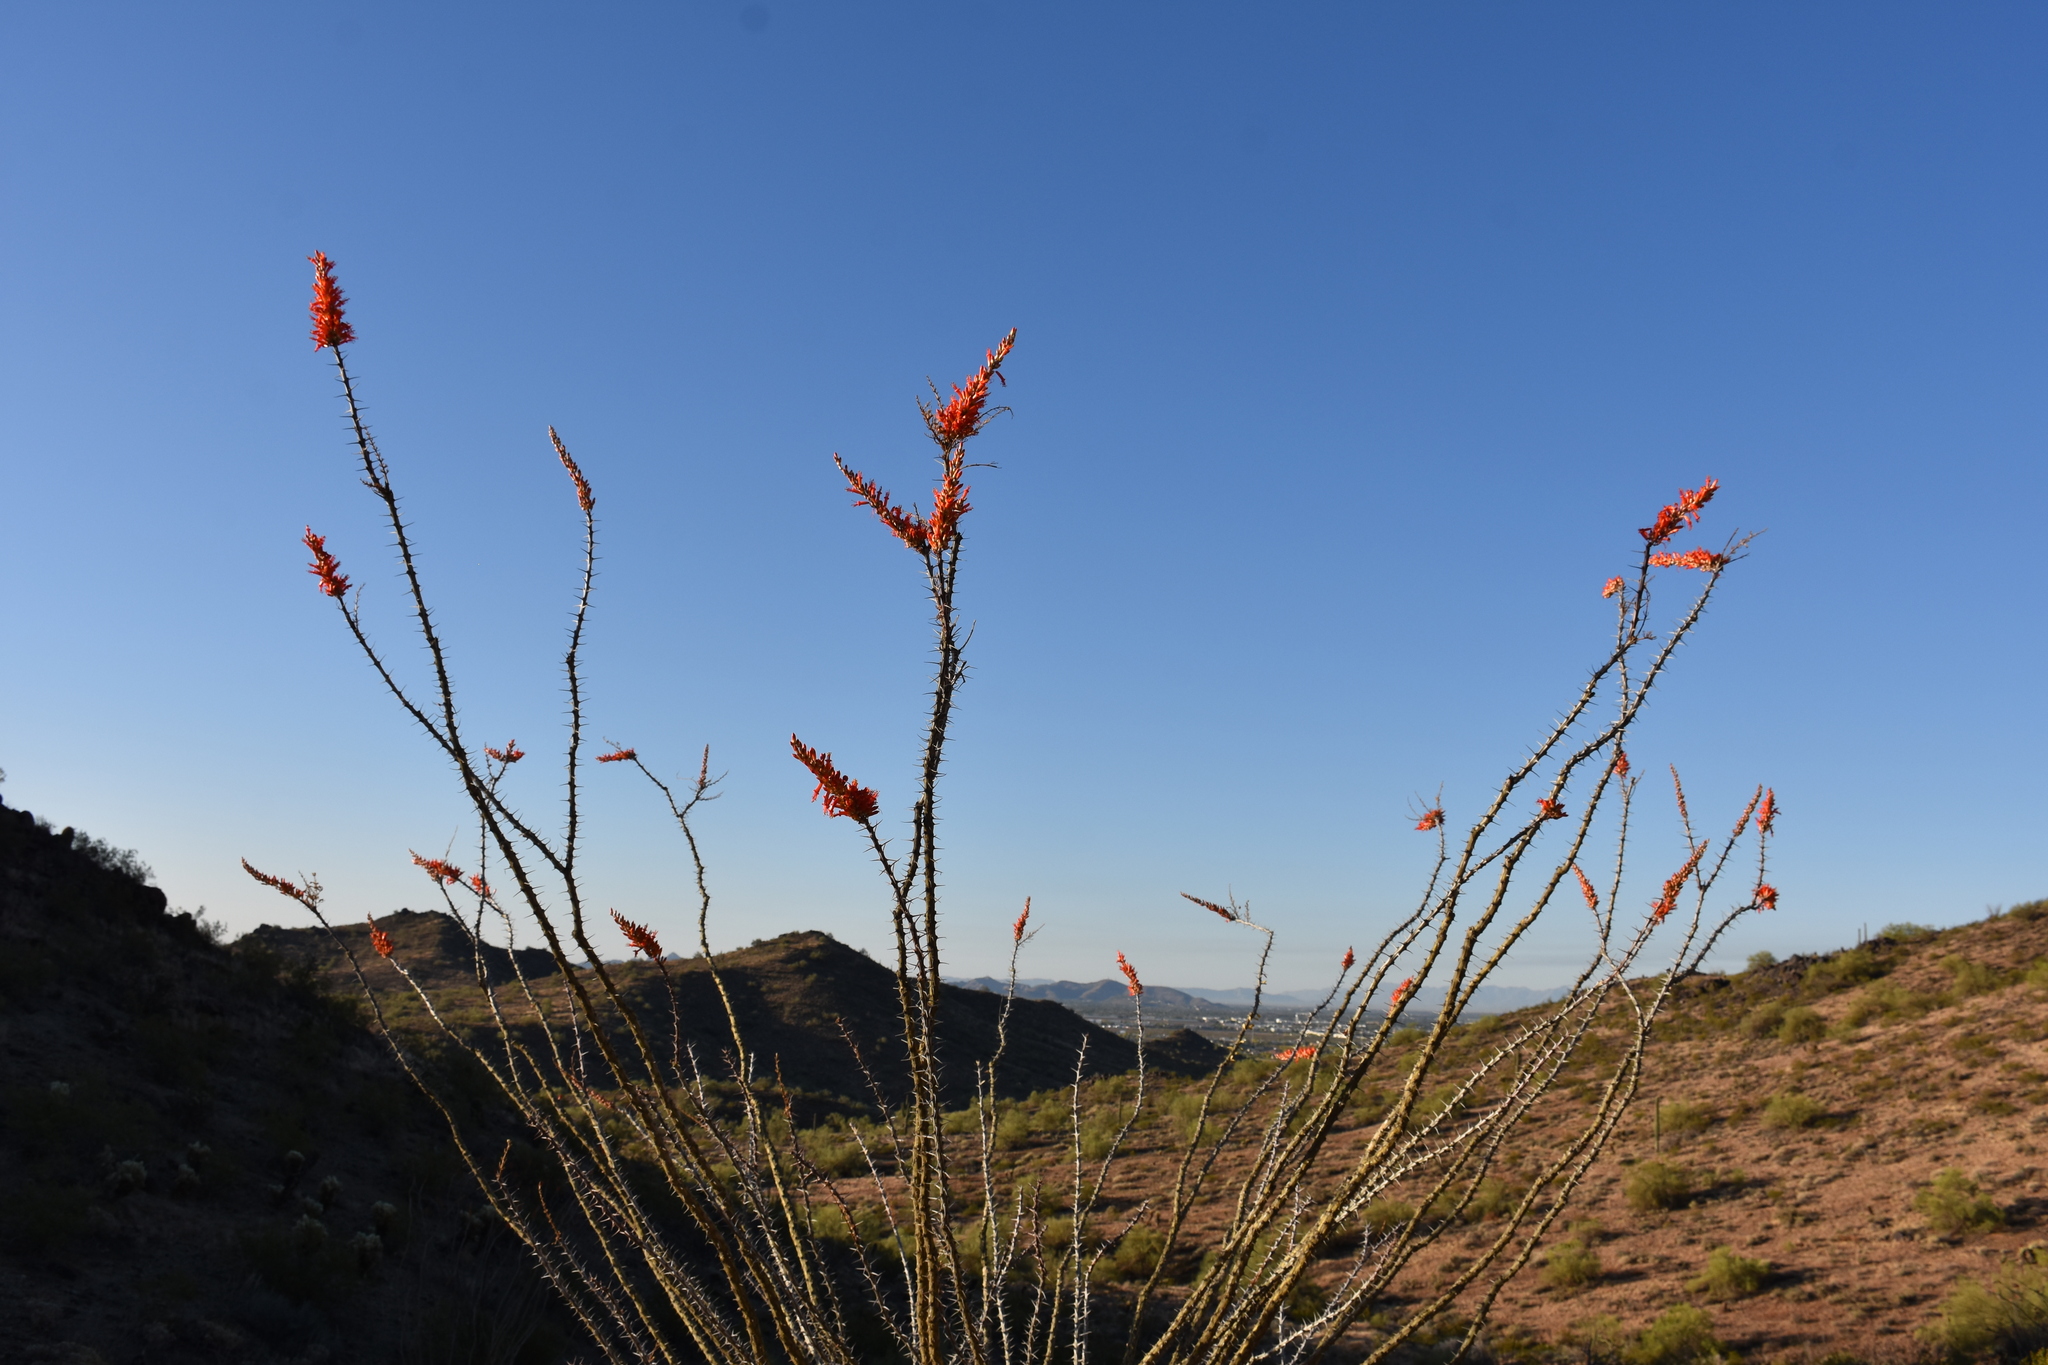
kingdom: Plantae
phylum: Tracheophyta
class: Magnoliopsida
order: Ericales
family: Fouquieriaceae
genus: Fouquieria
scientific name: Fouquieria splendens
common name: Vine-cactus
